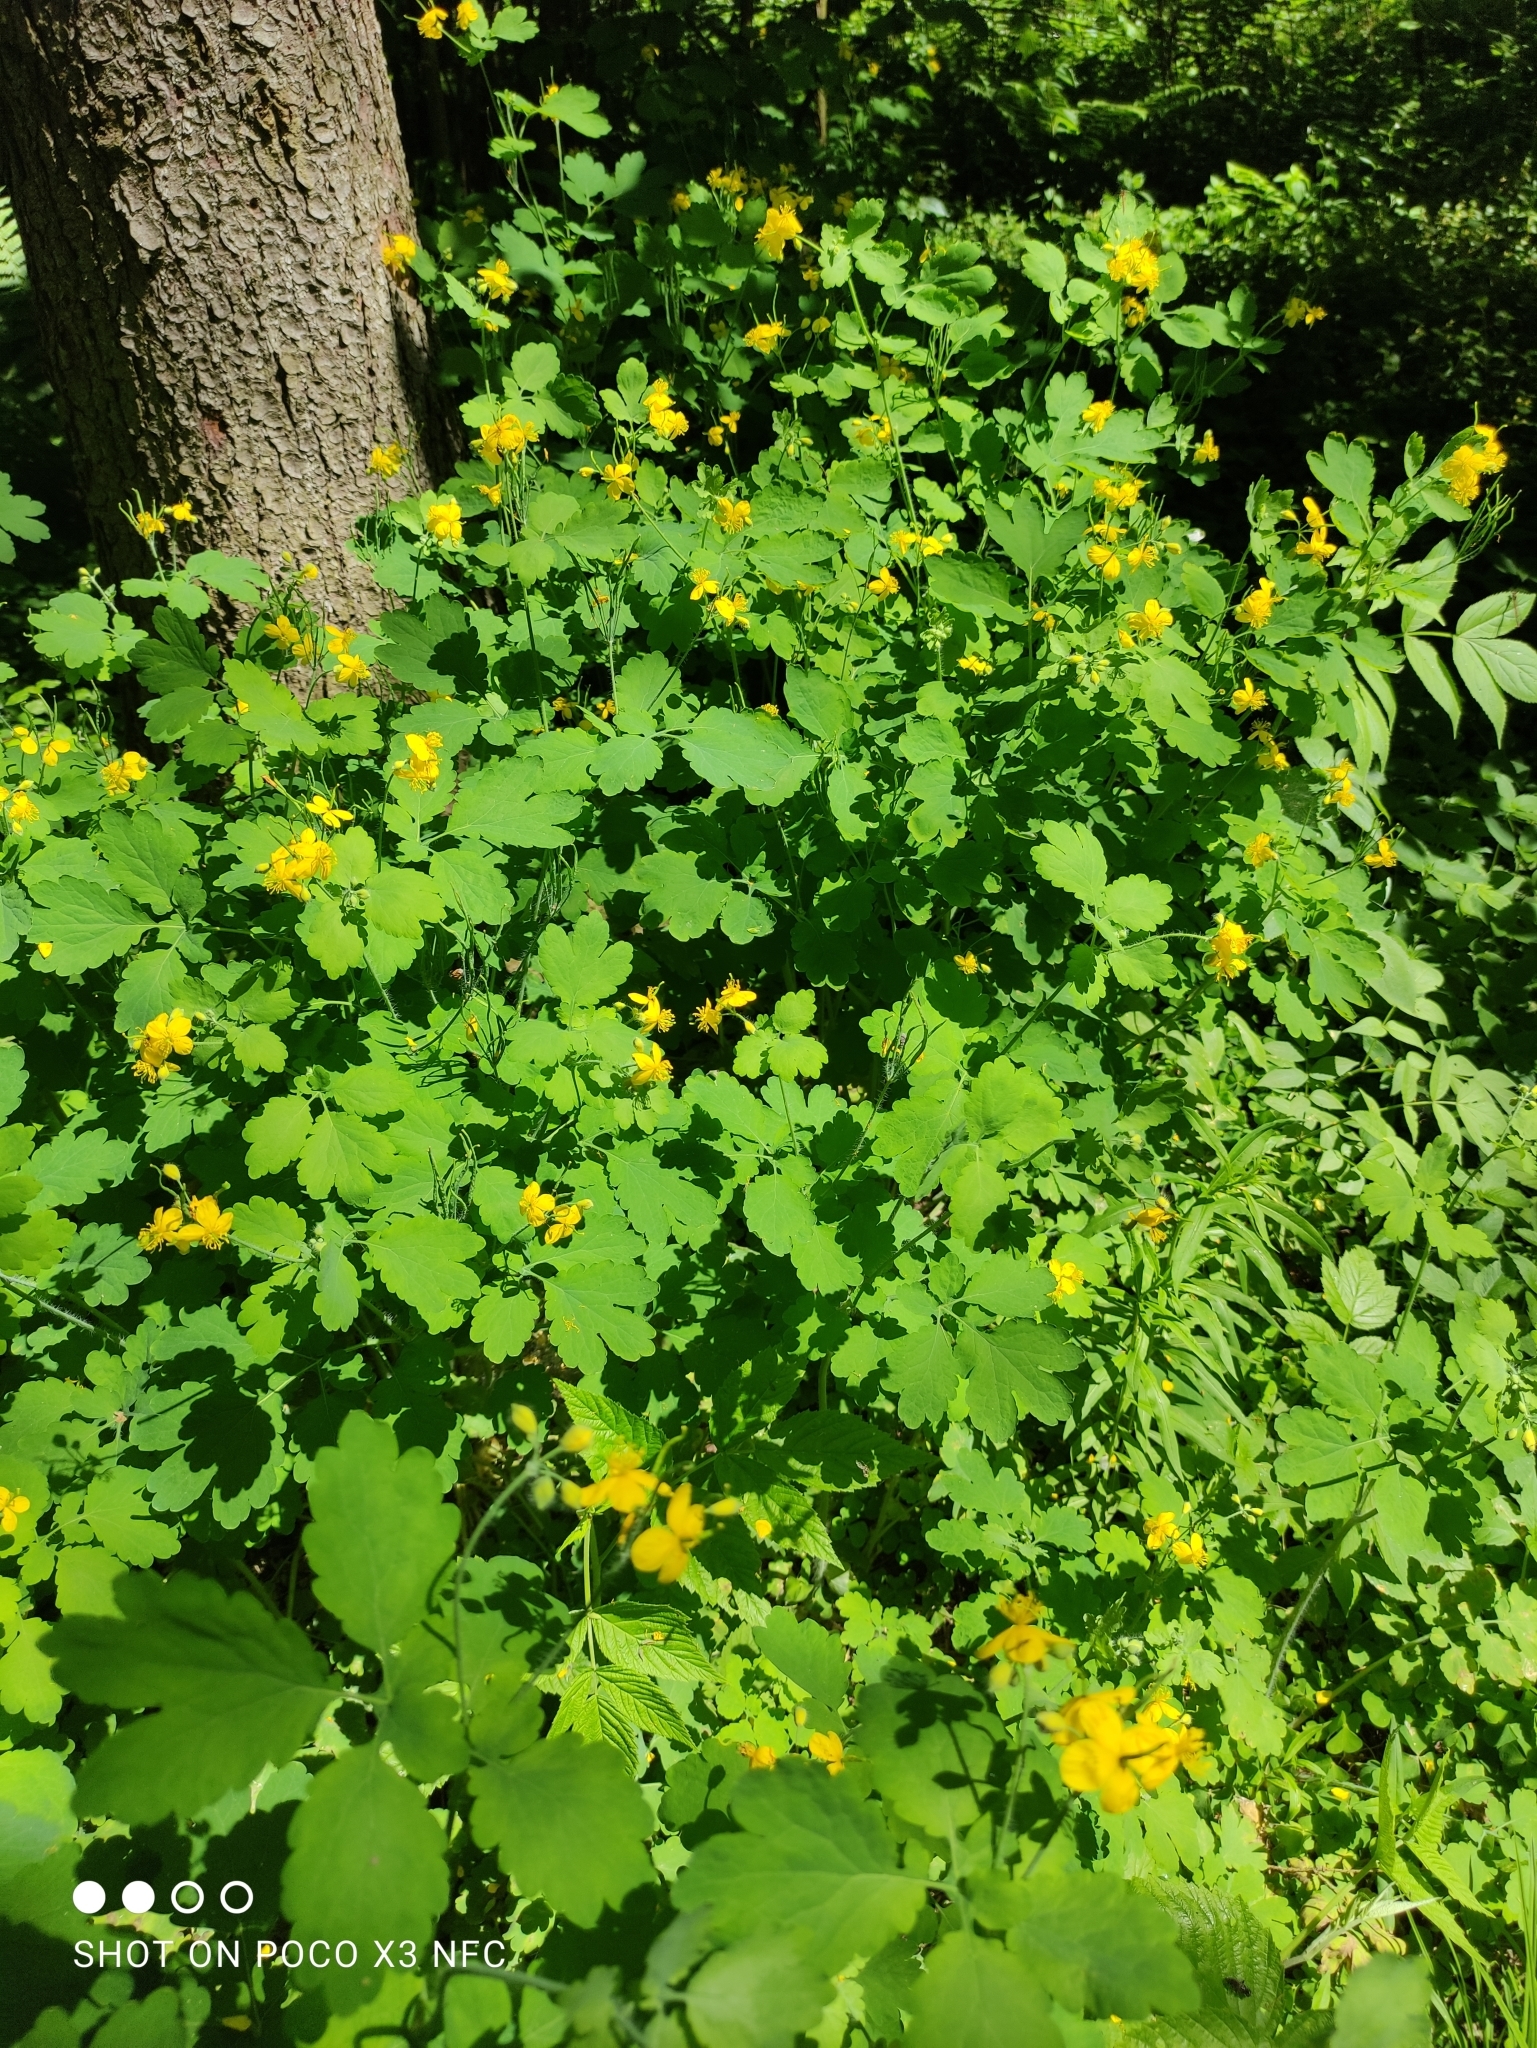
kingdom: Plantae
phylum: Tracheophyta
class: Magnoliopsida
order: Ranunculales
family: Papaveraceae
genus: Chelidonium
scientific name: Chelidonium majus
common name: Greater celandine
